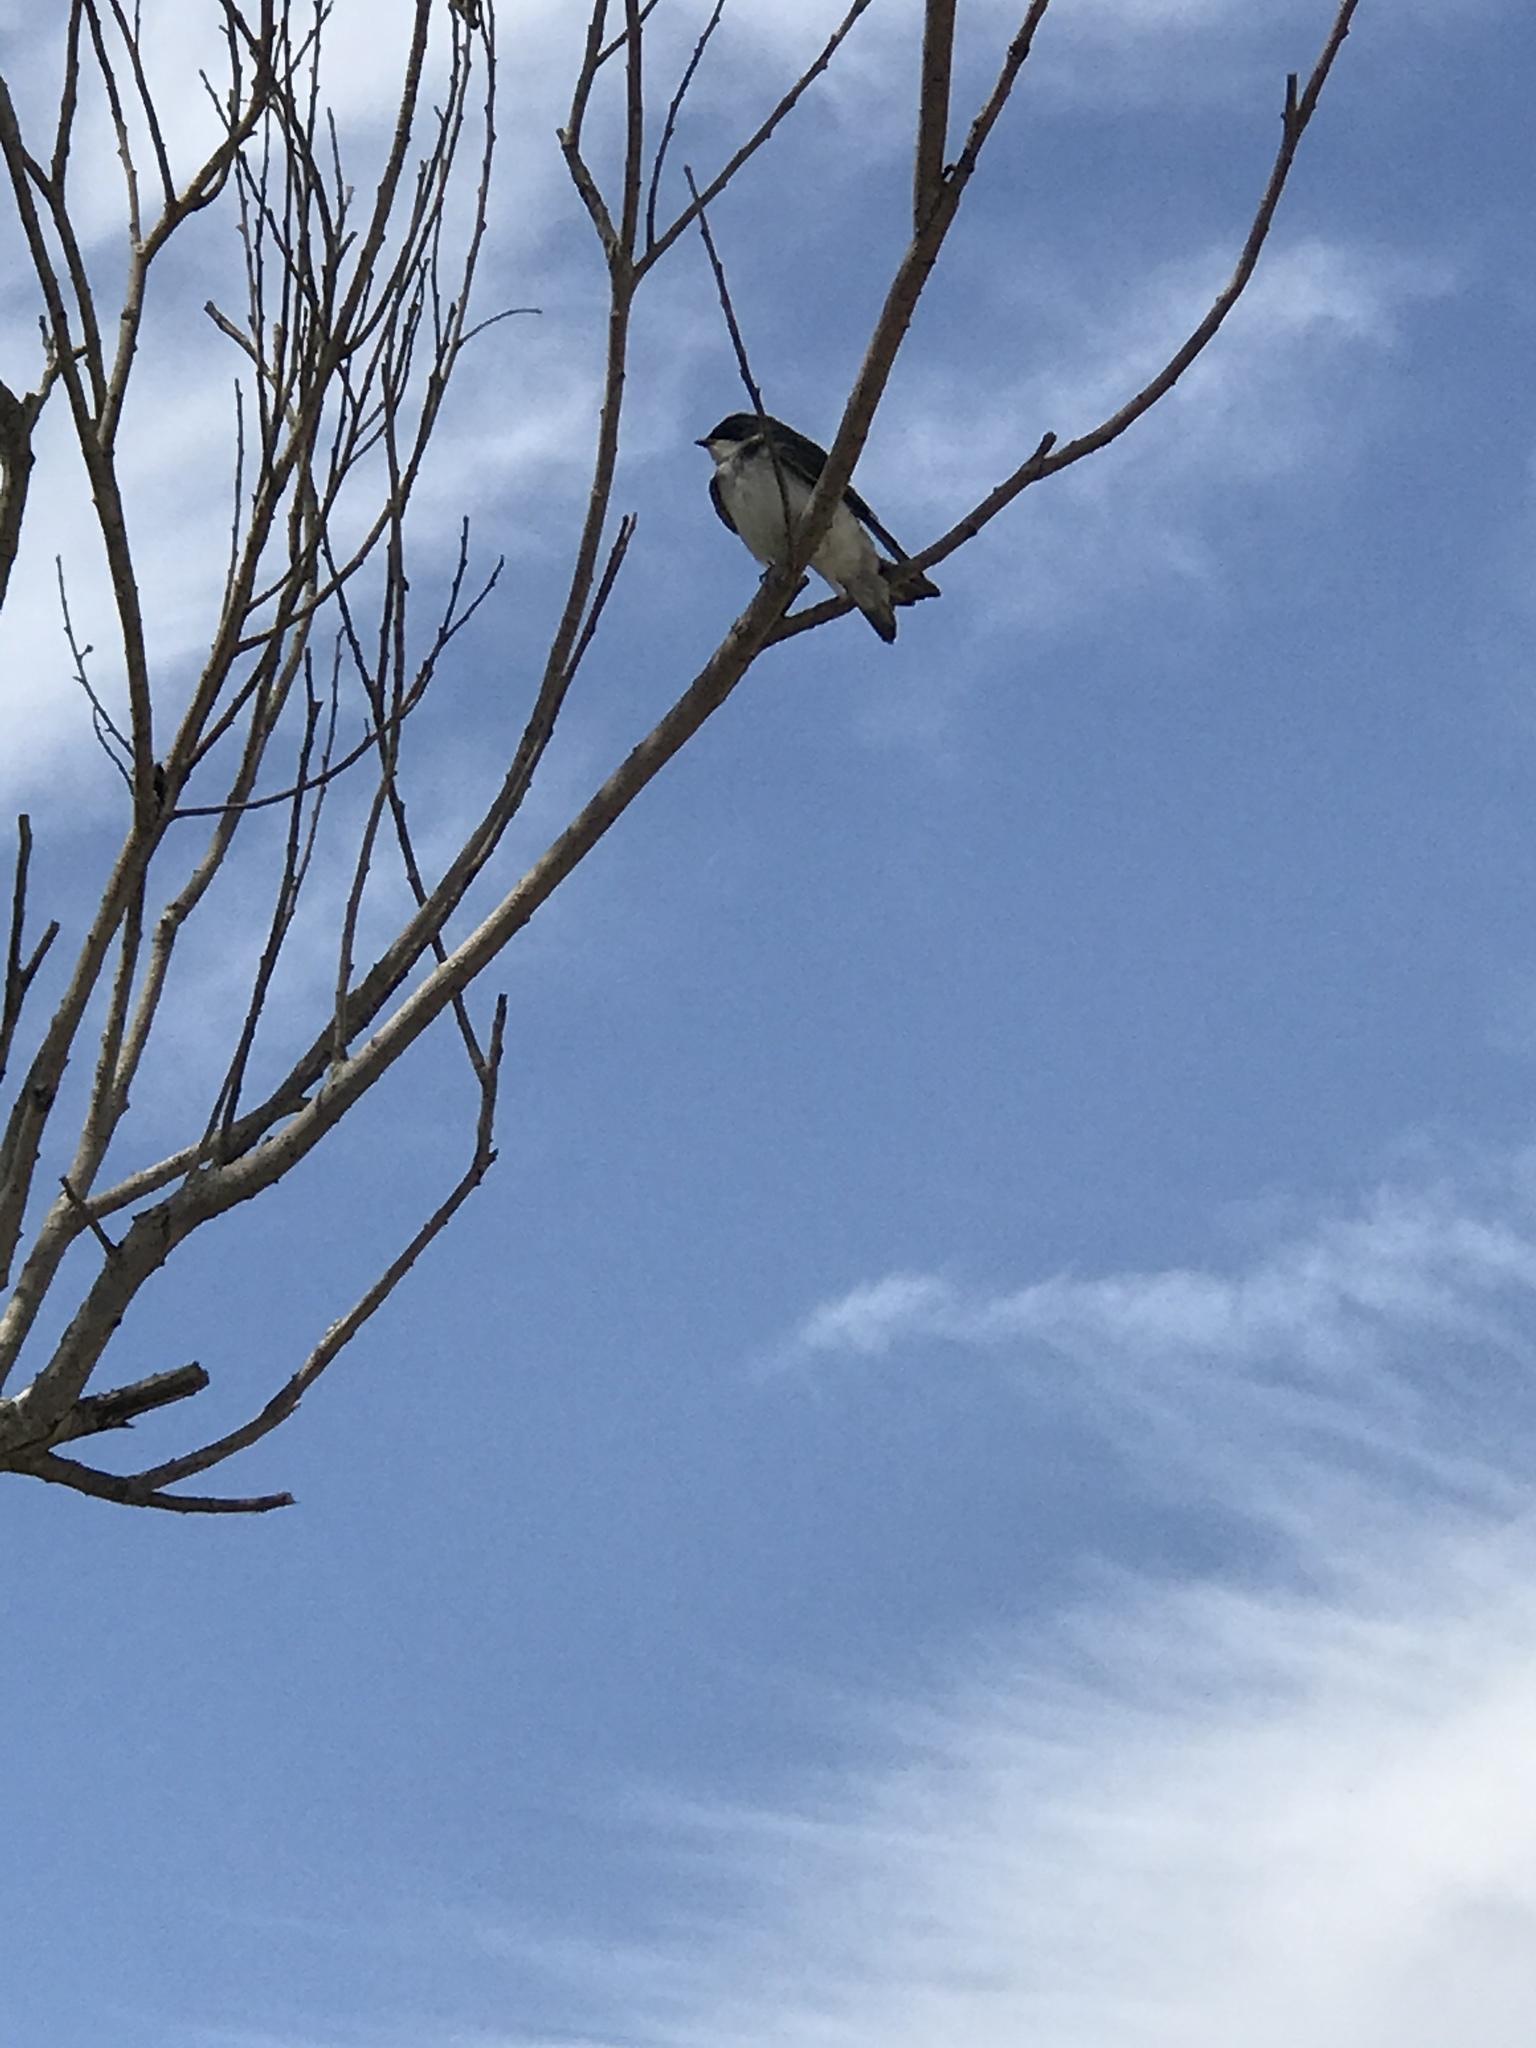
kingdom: Animalia
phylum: Chordata
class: Aves
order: Passeriformes
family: Hirundinidae
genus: Tachycineta
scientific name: Tachycineta bicolor
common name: Tree swallow
